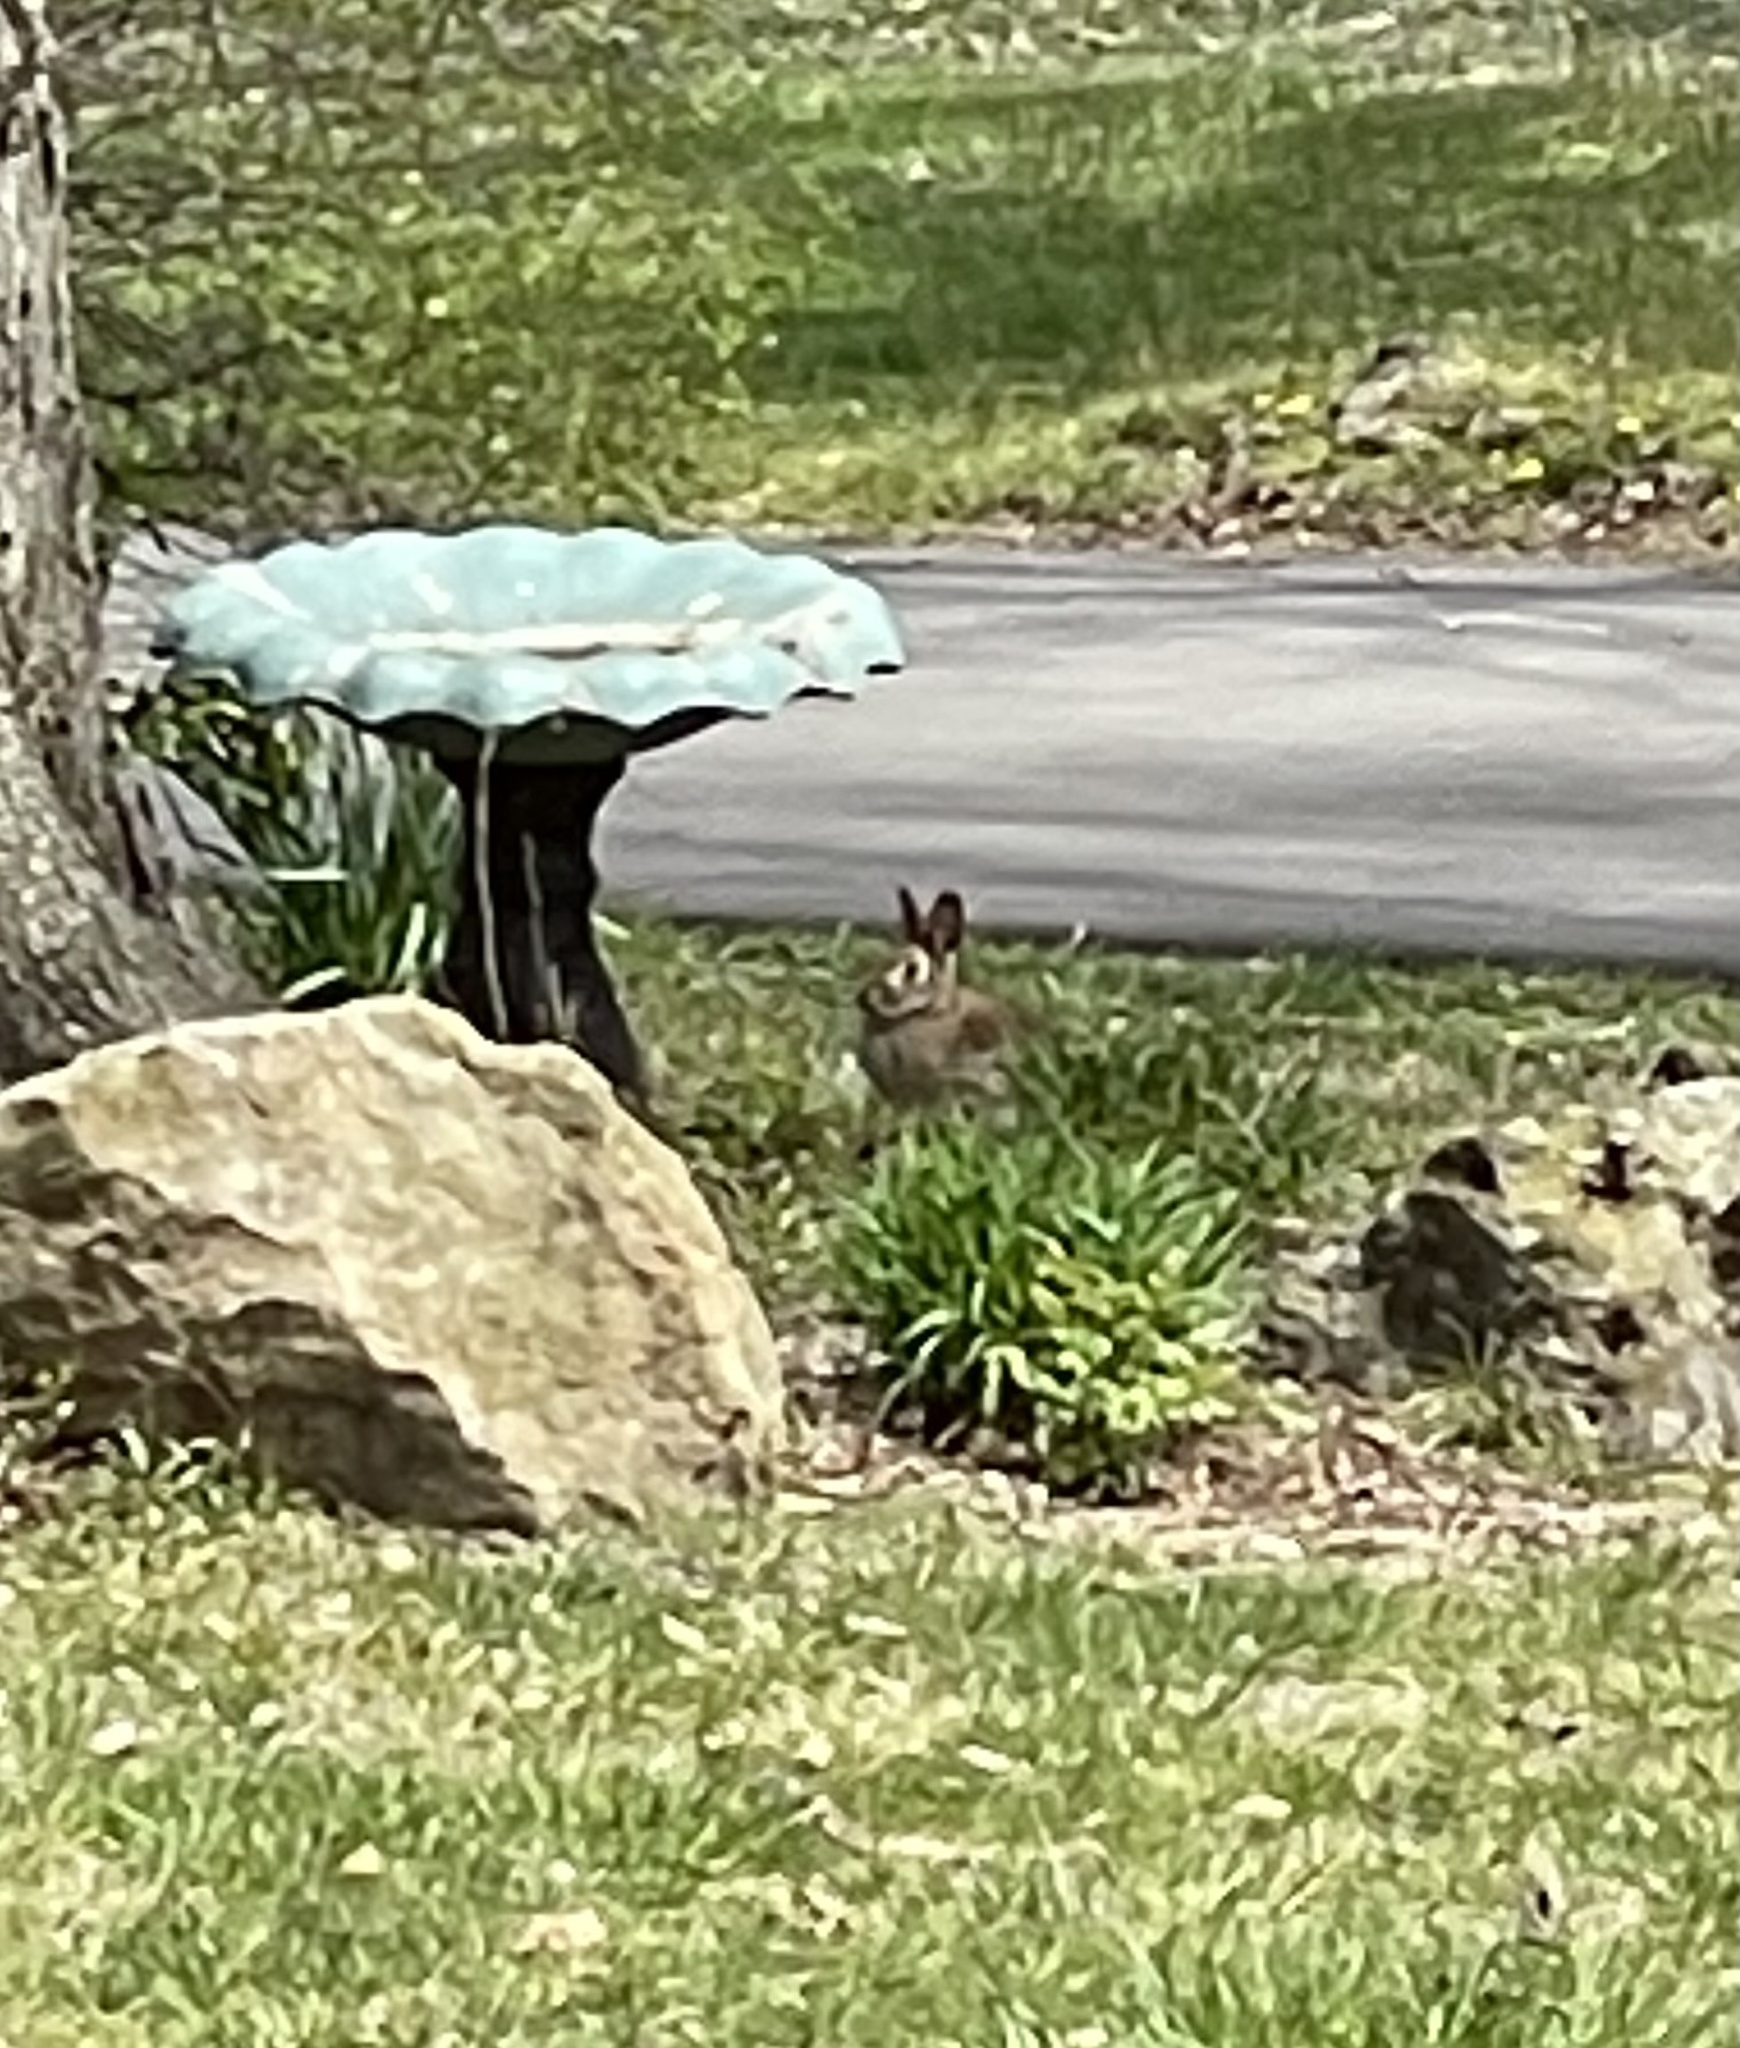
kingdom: Animalia
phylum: Chordata
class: Mammalia
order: Lagomorpha
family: Leporidae
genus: Sylvilagus
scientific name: Sylvilagus floridanus
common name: Eastern cottontail
